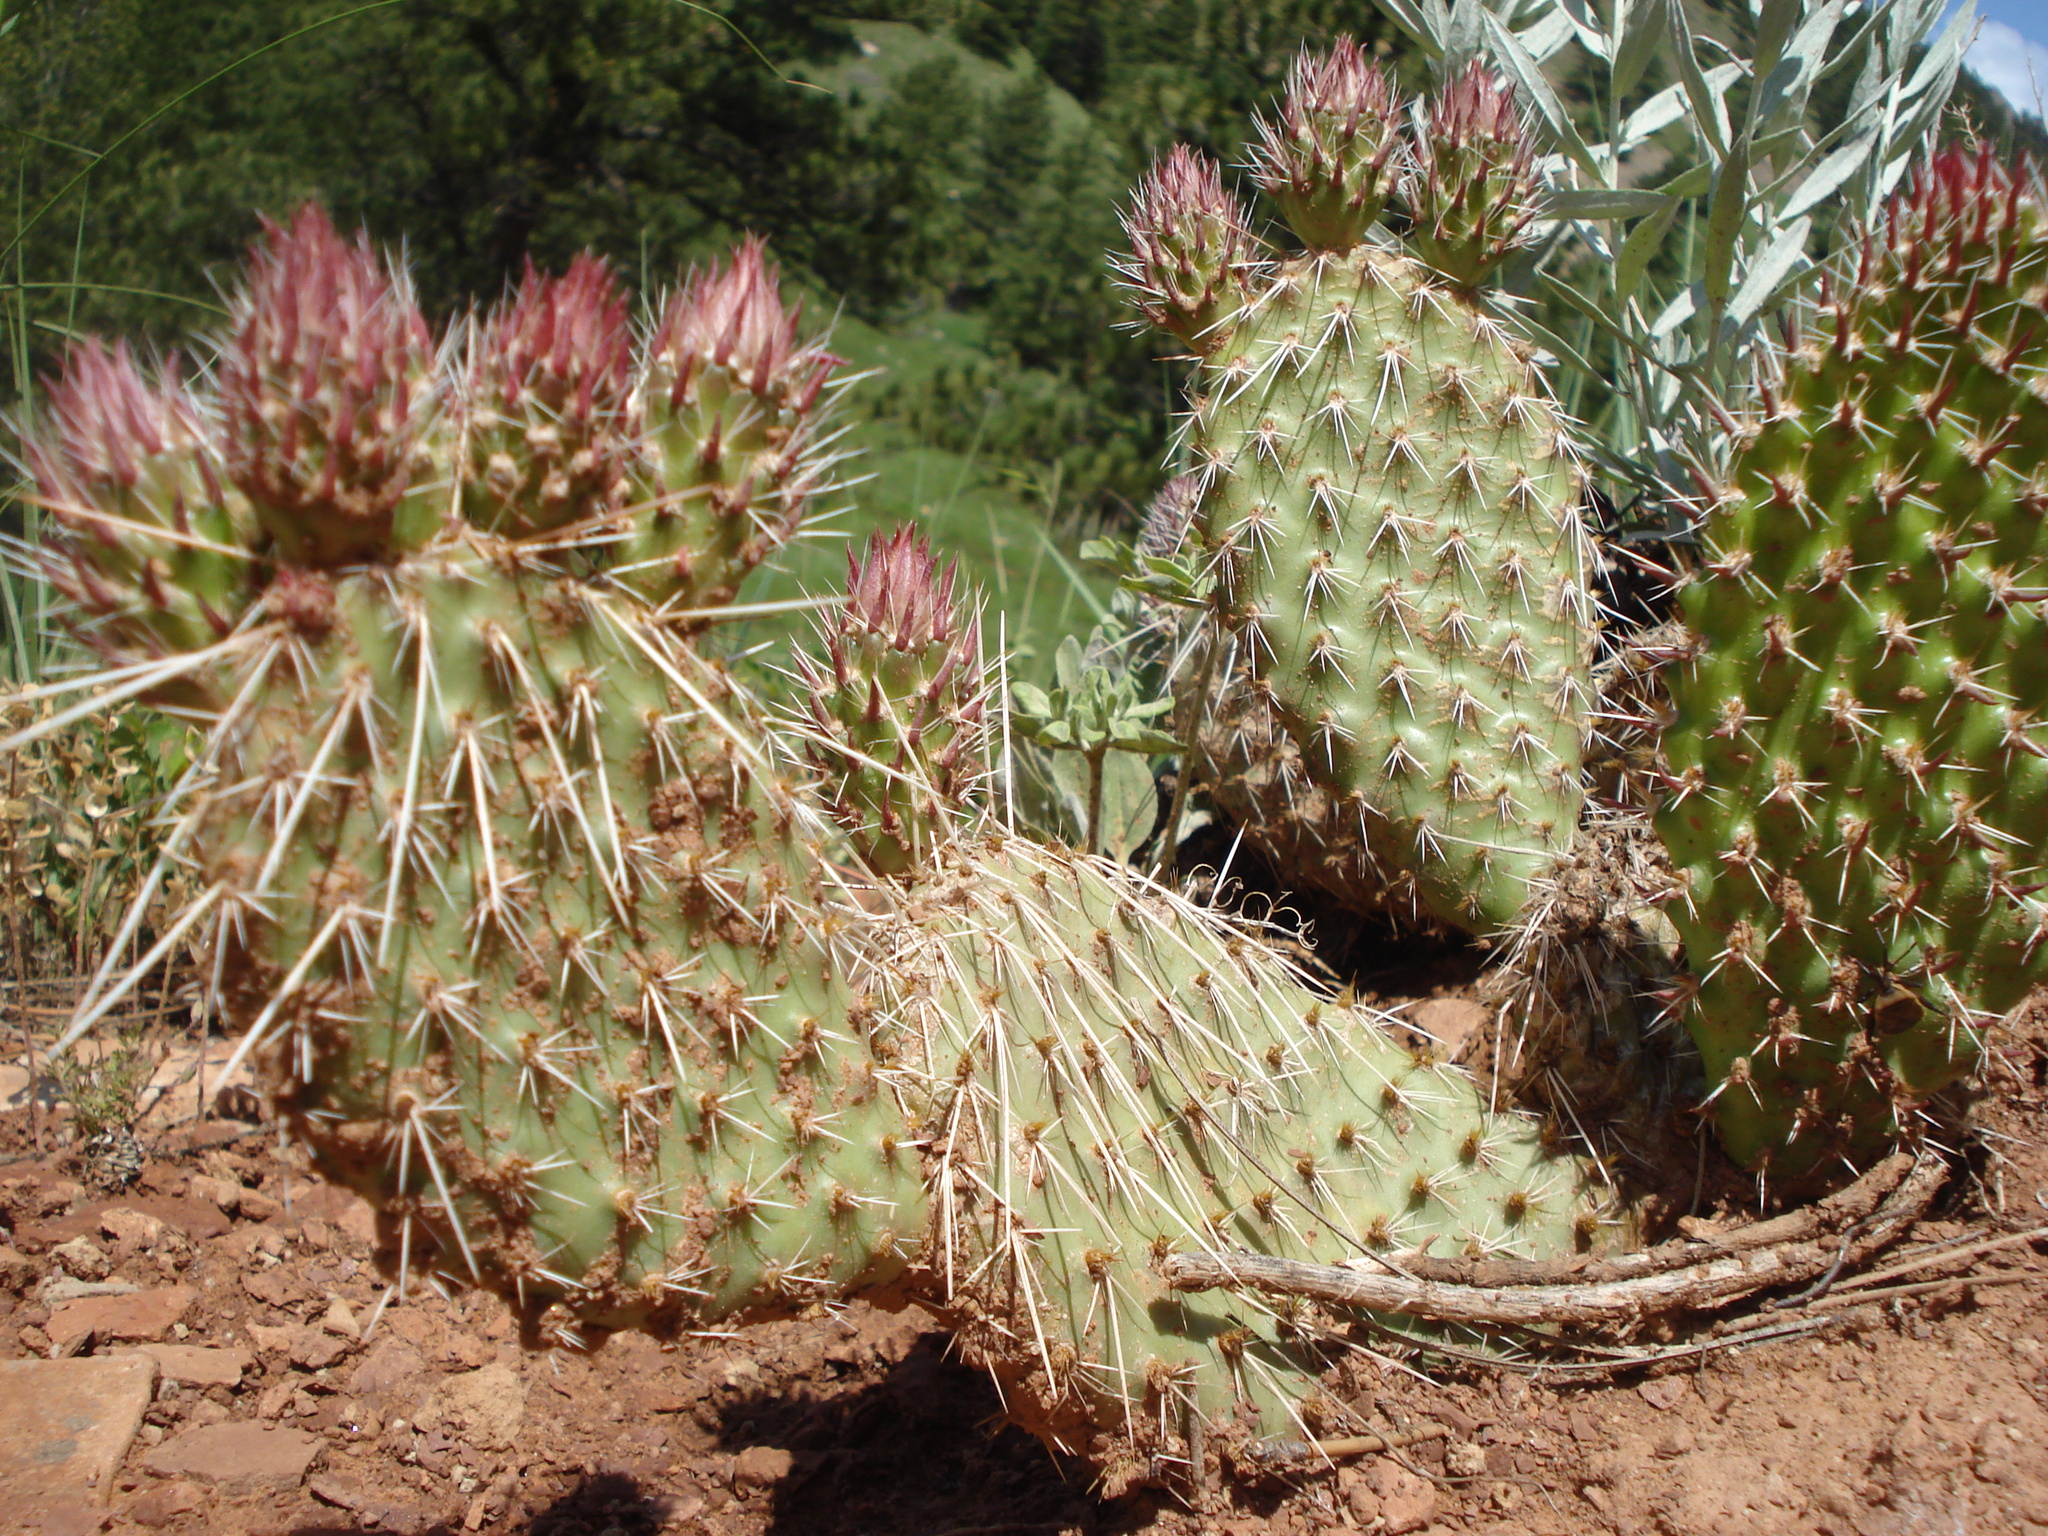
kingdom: Plantae
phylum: Tracheophyta
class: Magnoliopsida
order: Caryophyllales
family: Cactaceae
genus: Opuntia
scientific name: Opuntia polyacantha
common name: Plains prickly-pear
